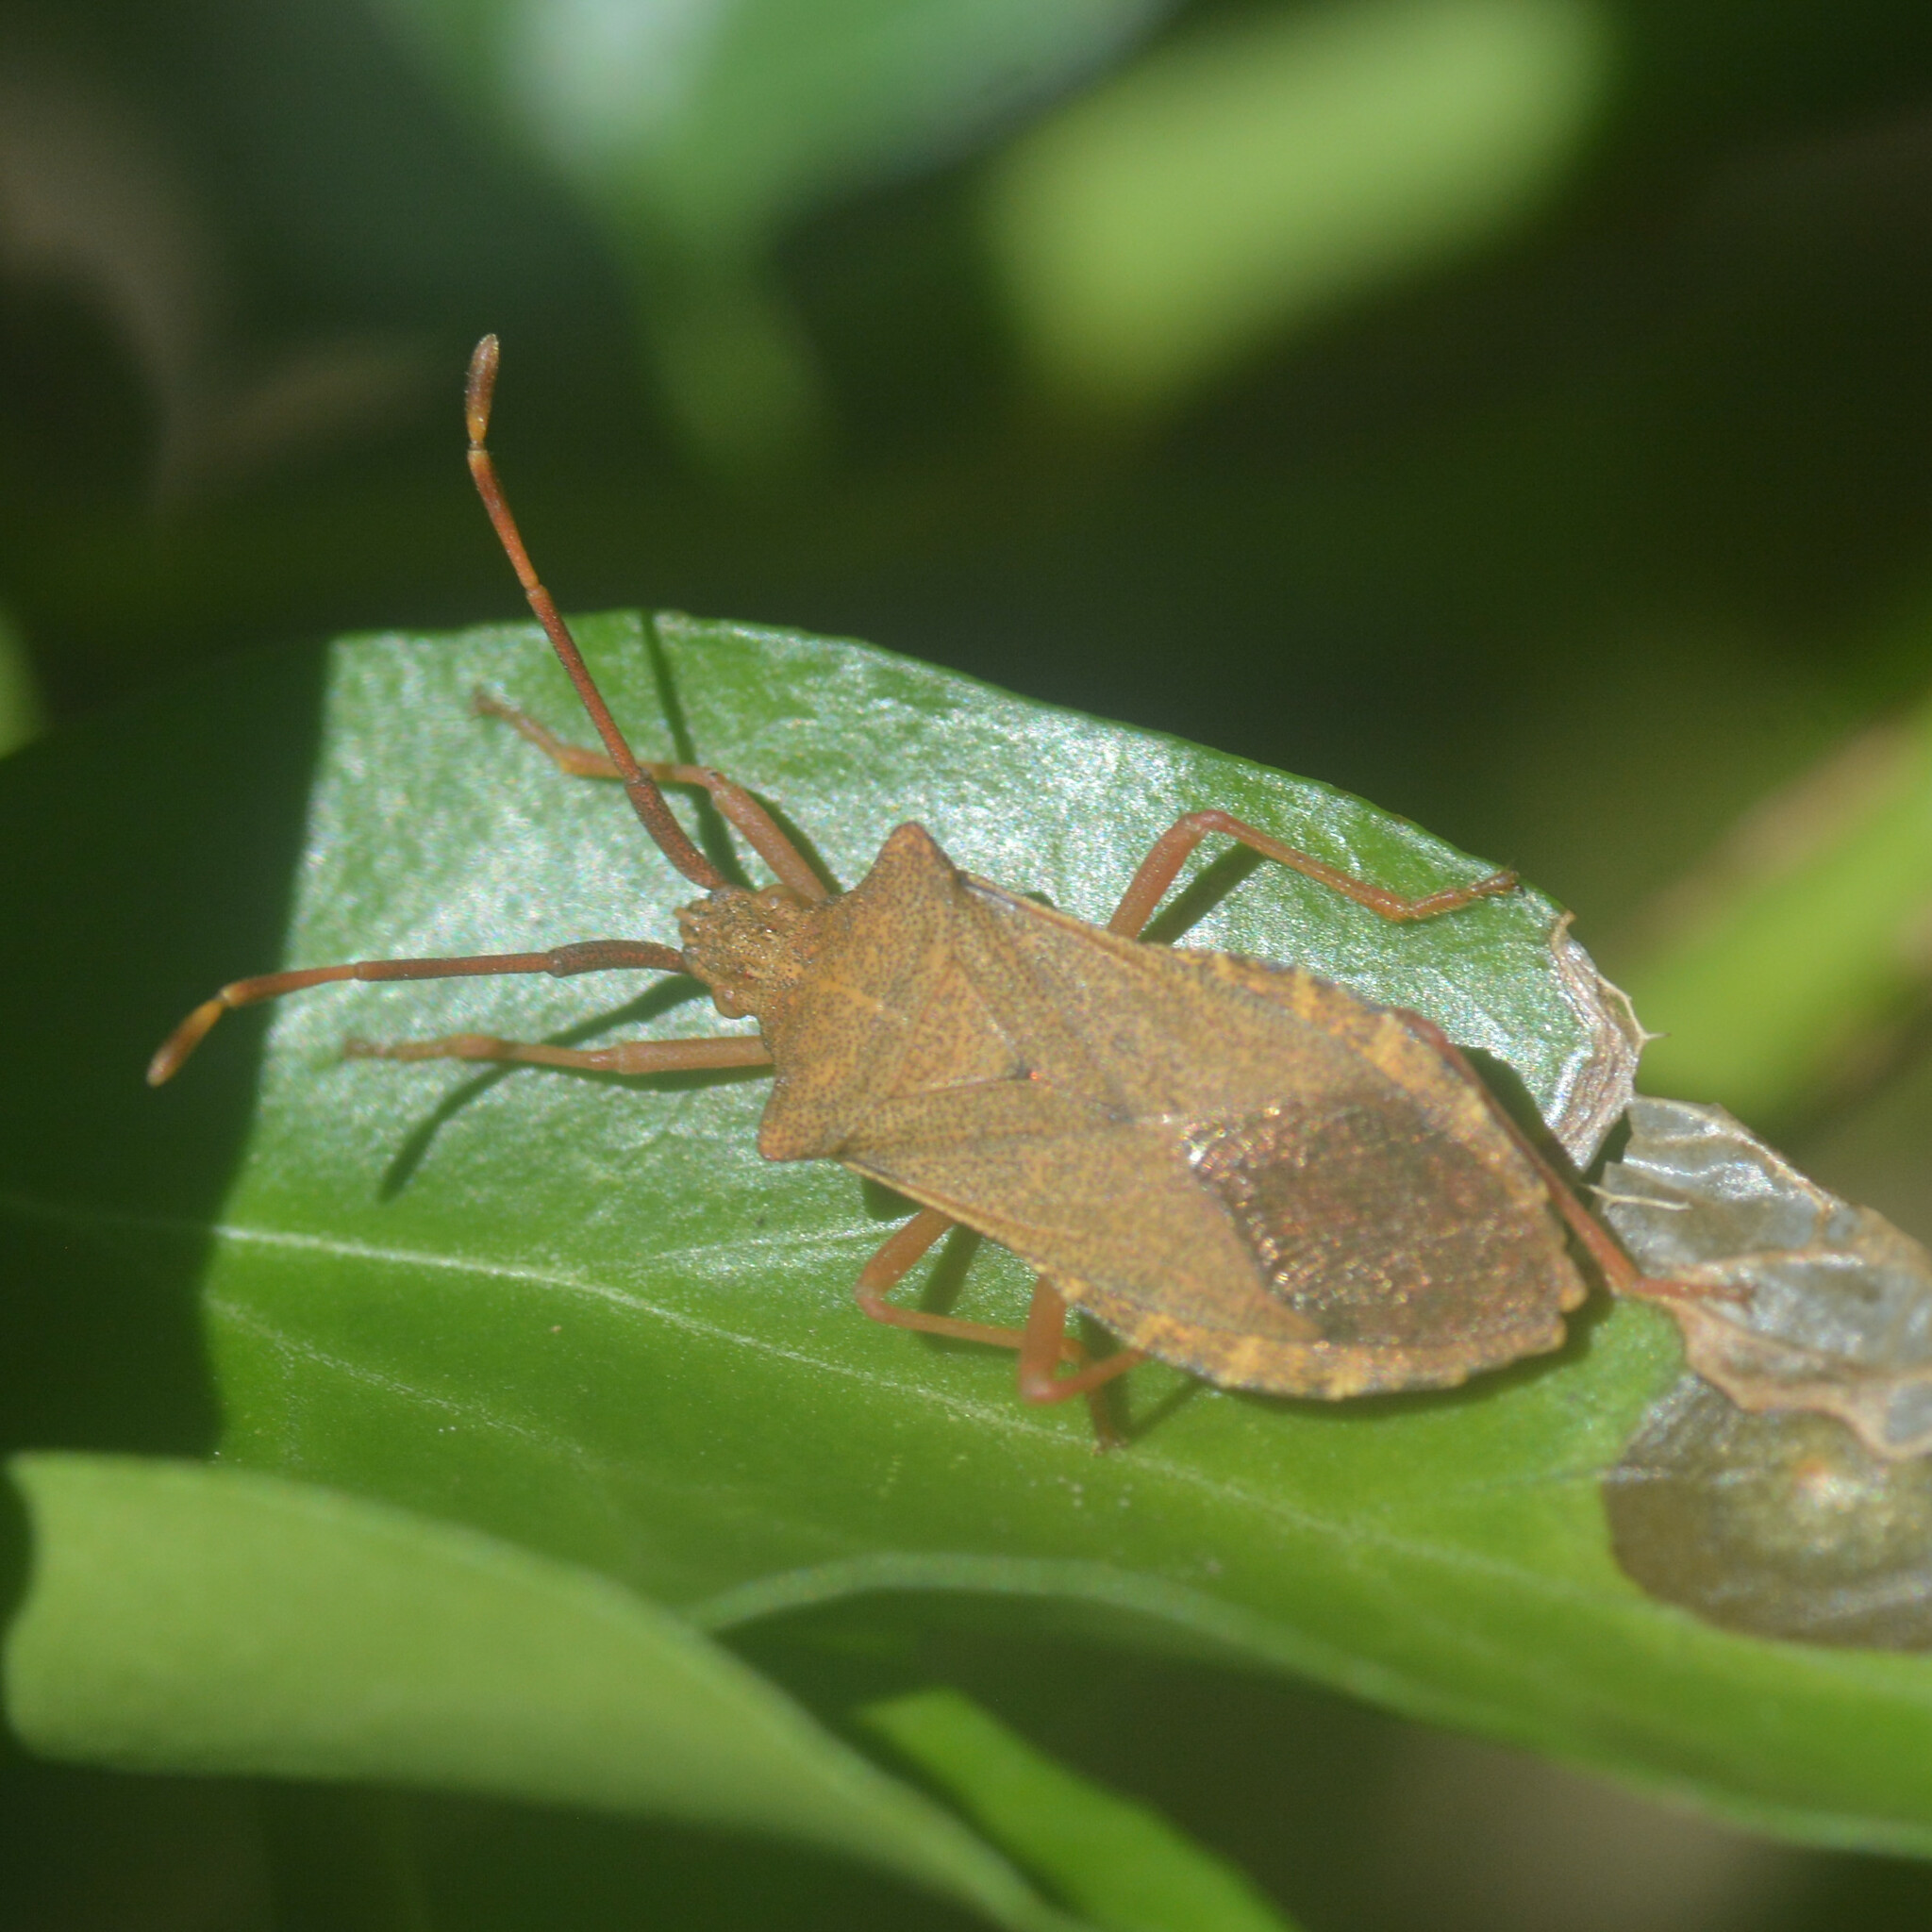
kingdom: Animalia
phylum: Arthropoda
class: Insecta
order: Hemiptera
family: Coreidae
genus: Gonocerus
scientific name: Gonocerus acuteangulatus
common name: Box bug
